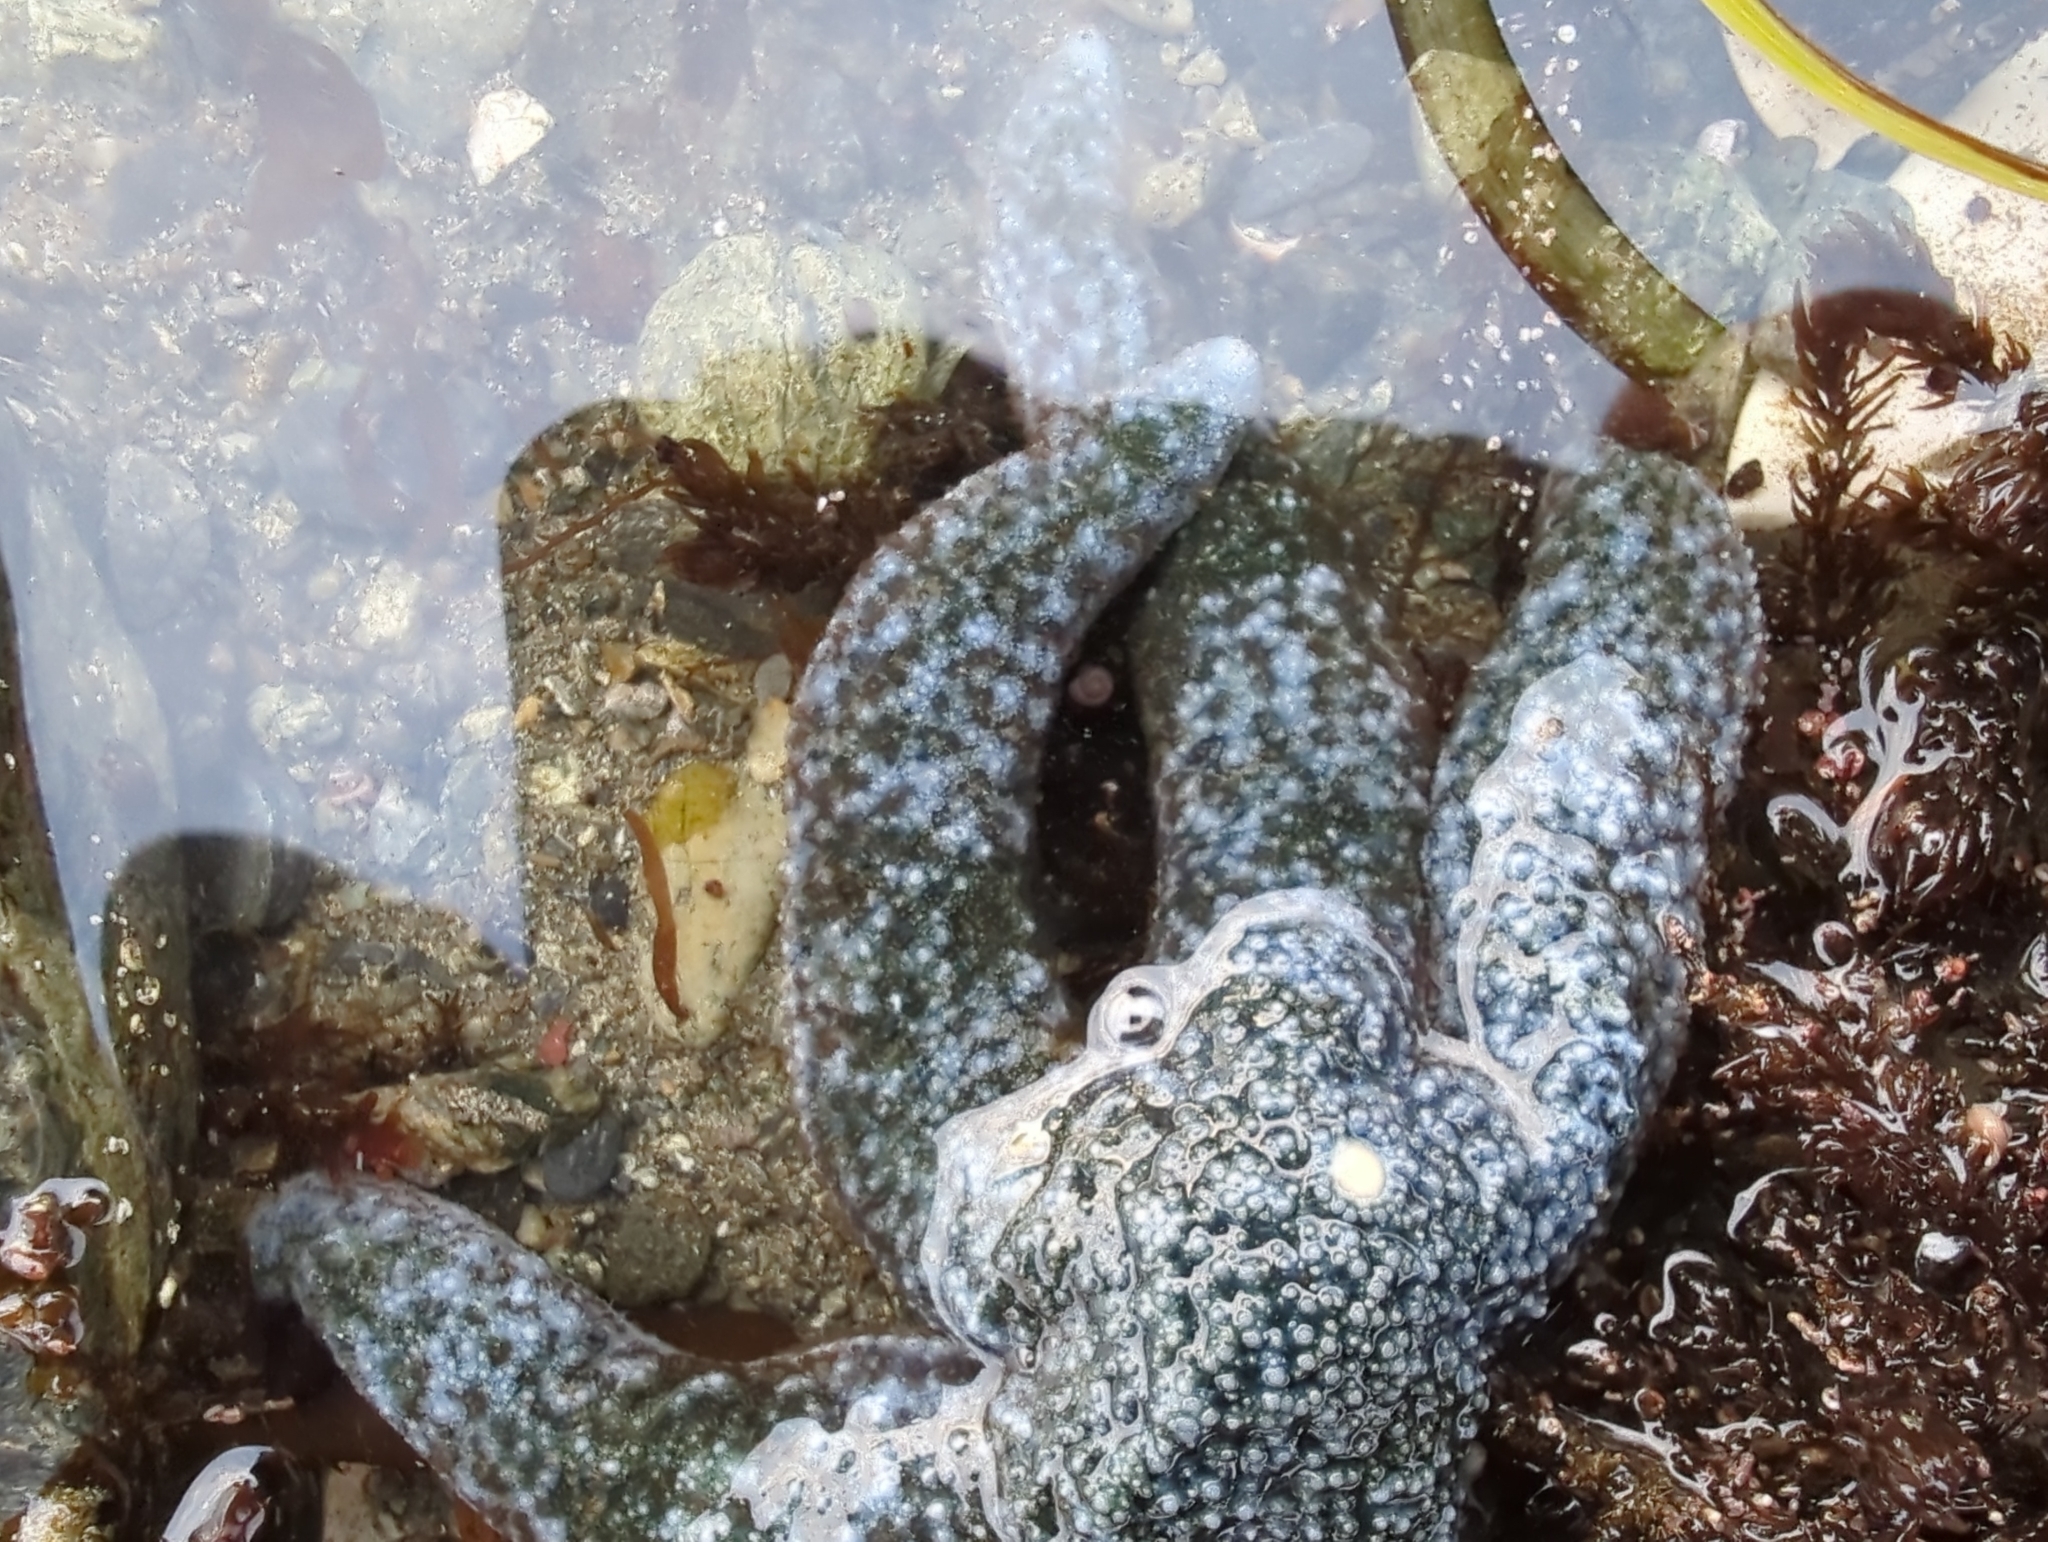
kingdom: Animalia
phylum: Echinodermata
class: Asteroidea
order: Forcipulatida
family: Asteriidae
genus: Evasterias
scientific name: Evasterias troschelii
